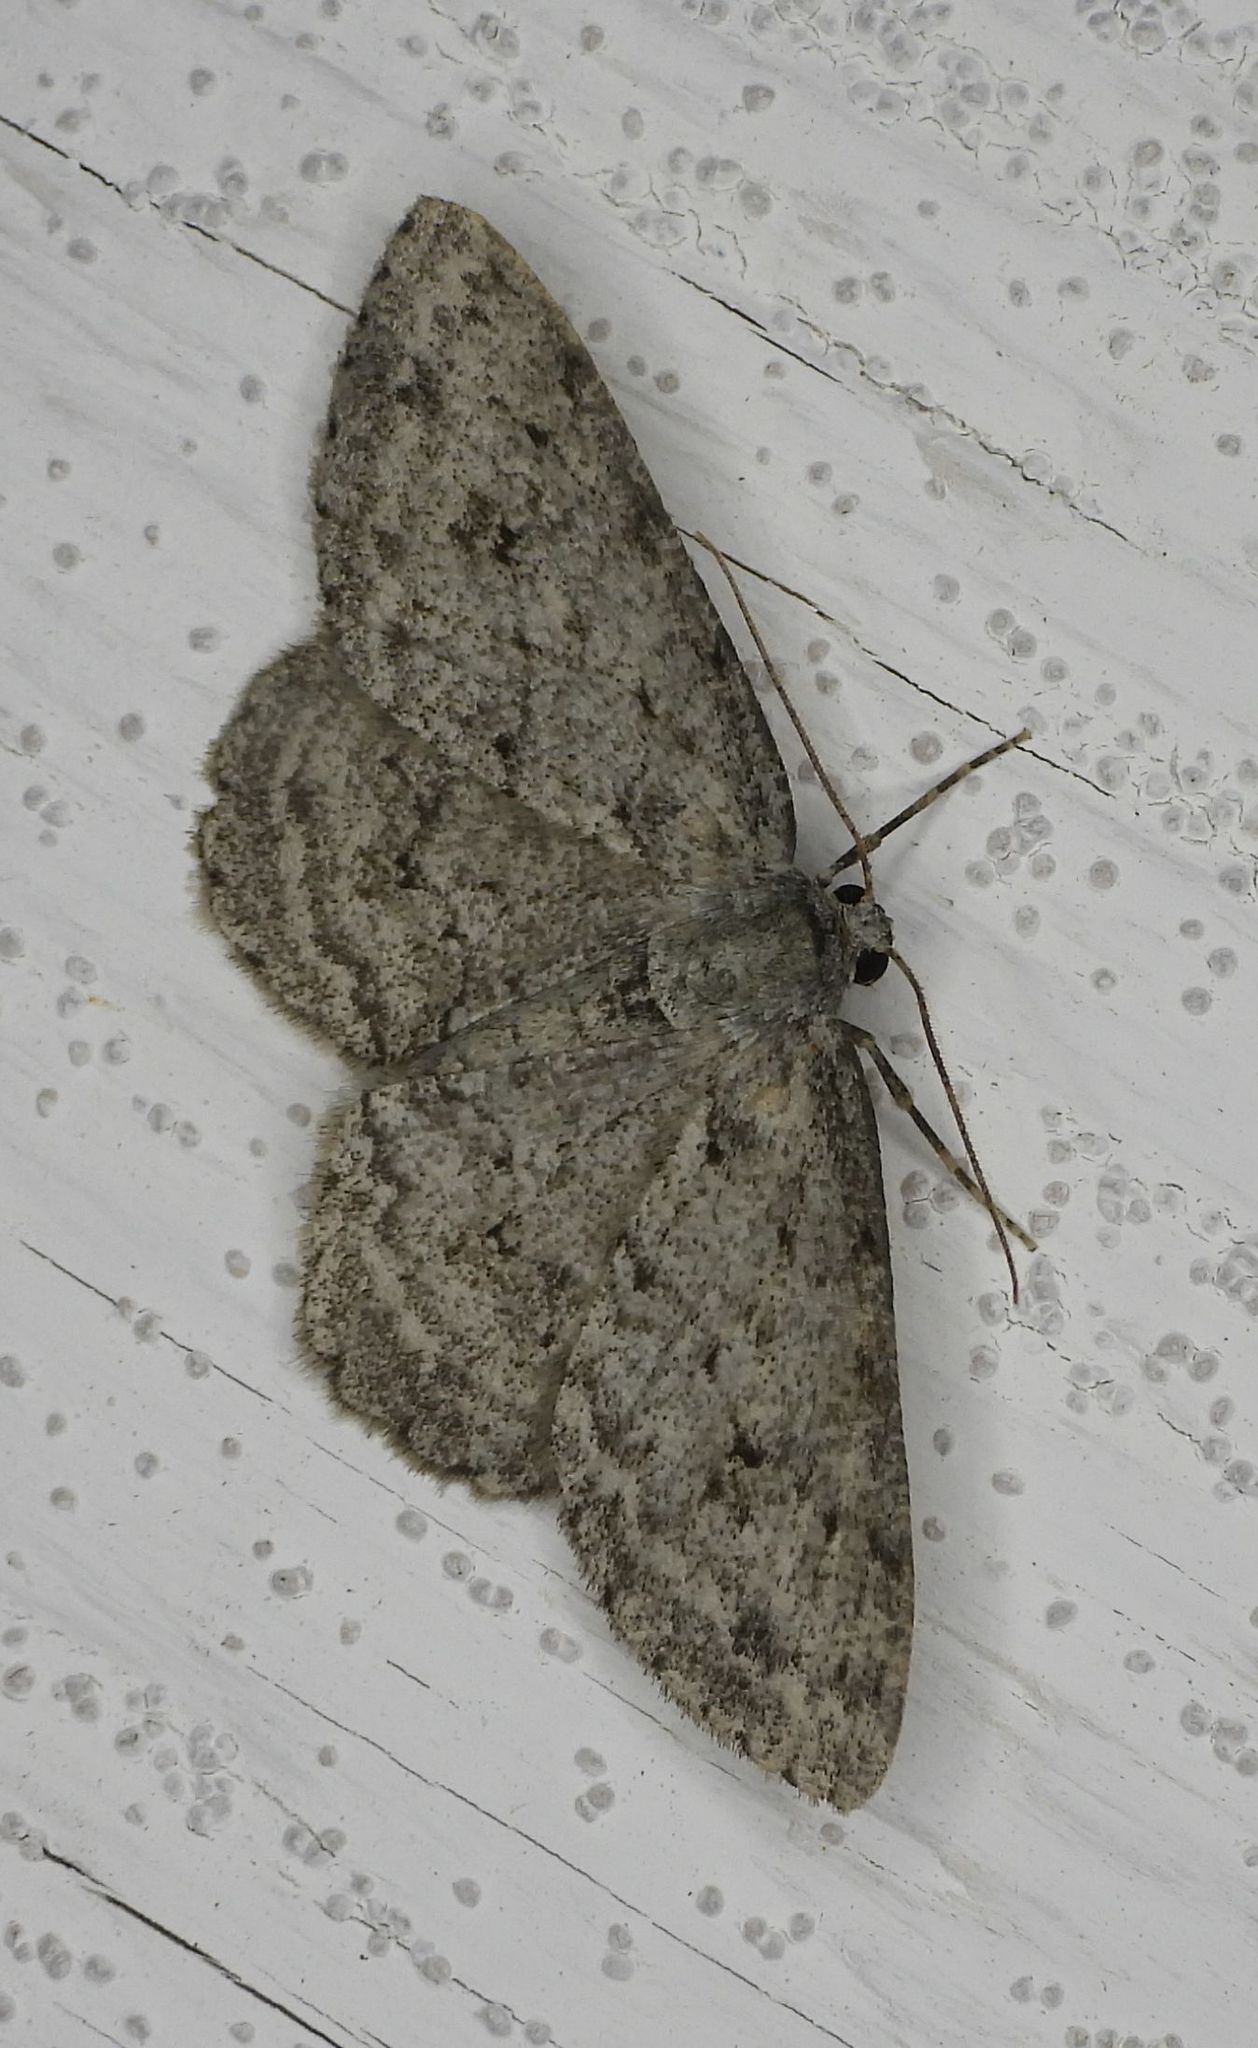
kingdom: Animalia
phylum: Arthropoda
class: Insecta
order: Lepidoptera
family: Geometridae
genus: Ectropis
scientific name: Ectropis crepuscularia
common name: Engrailed
